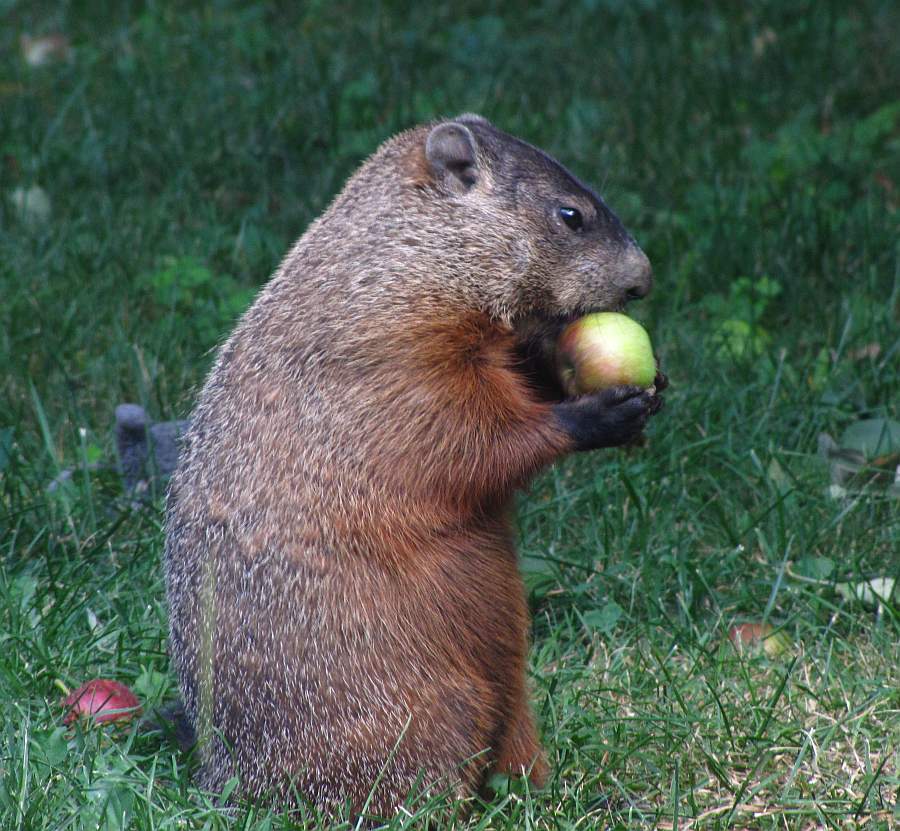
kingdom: Animalia
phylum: Chordata
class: Mammalia
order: Rodentia
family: Sciuridae
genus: Marmota
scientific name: Marmota monax
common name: Groundhog
